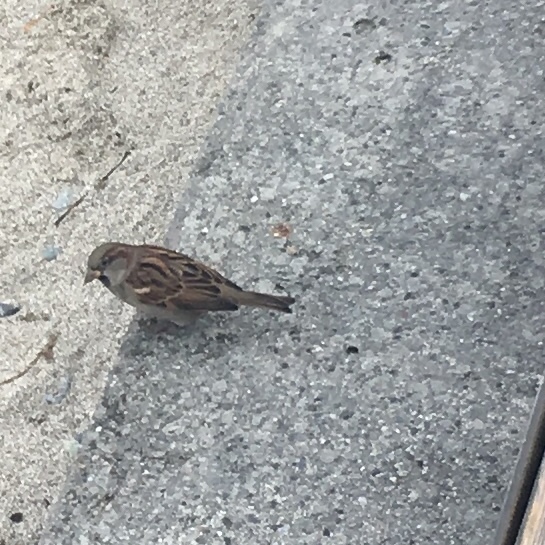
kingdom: Animalia
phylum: Chordata
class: Aves
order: Passeriformes
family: Passeridae
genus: Passer
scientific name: Passer domesticus
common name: House sparrow
